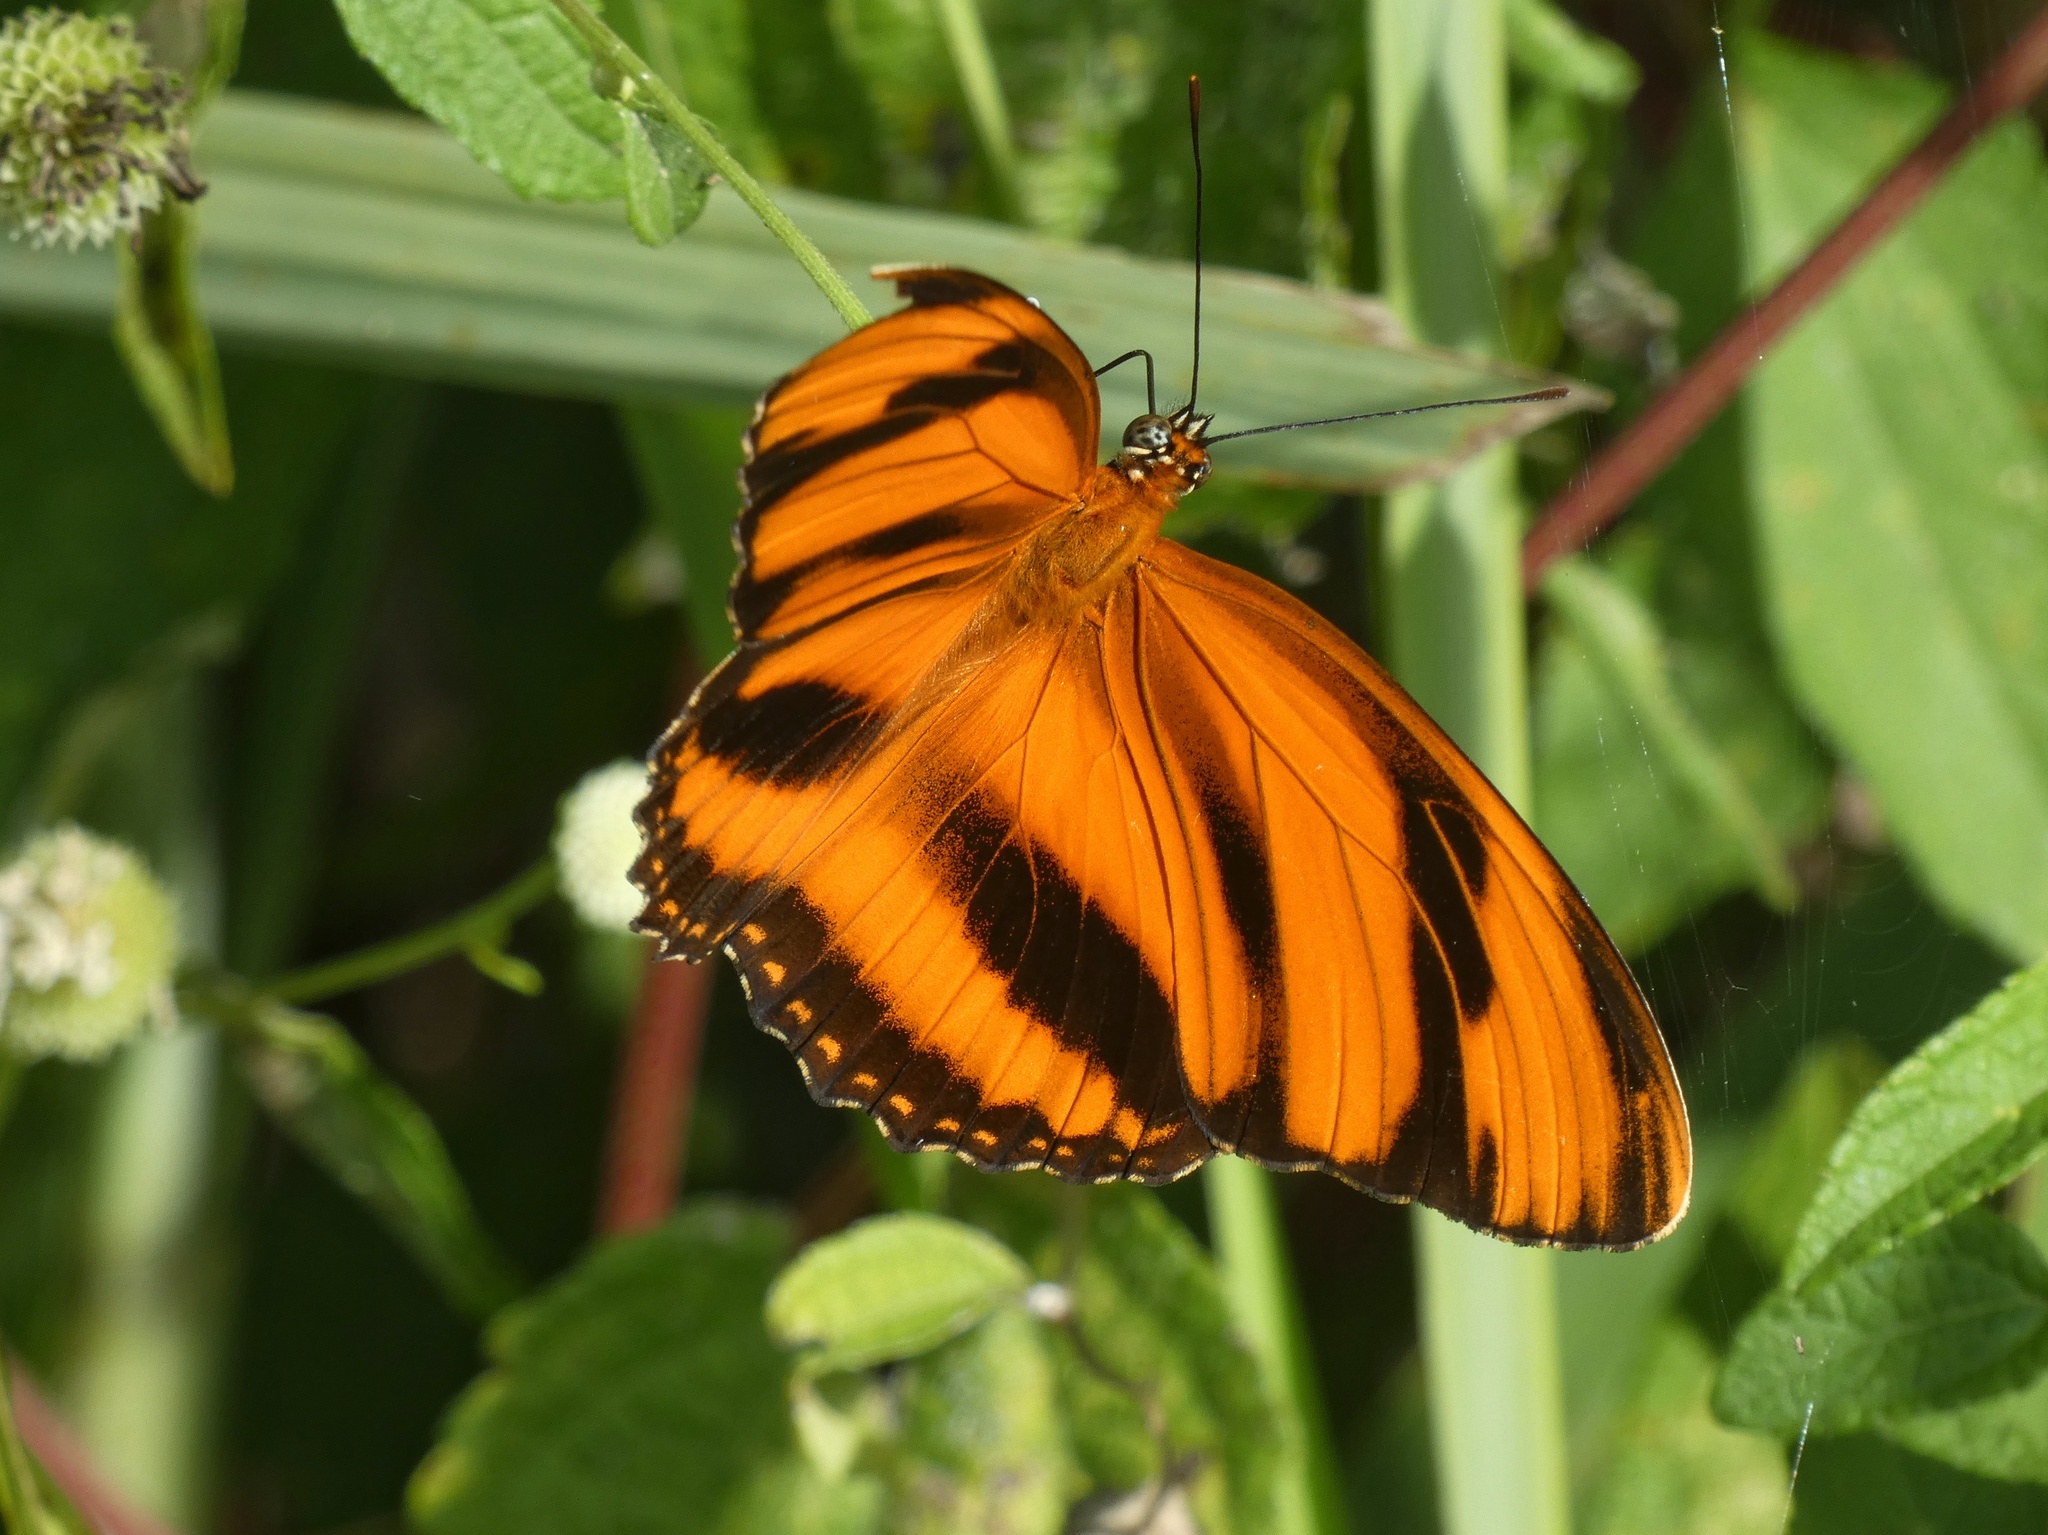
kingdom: Animalia
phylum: Arthropoda
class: Insecta
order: Lepidoptera
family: Nymphalidae
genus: Dryadula
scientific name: Dryadula phaetusa
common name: Banded orange heliconian
